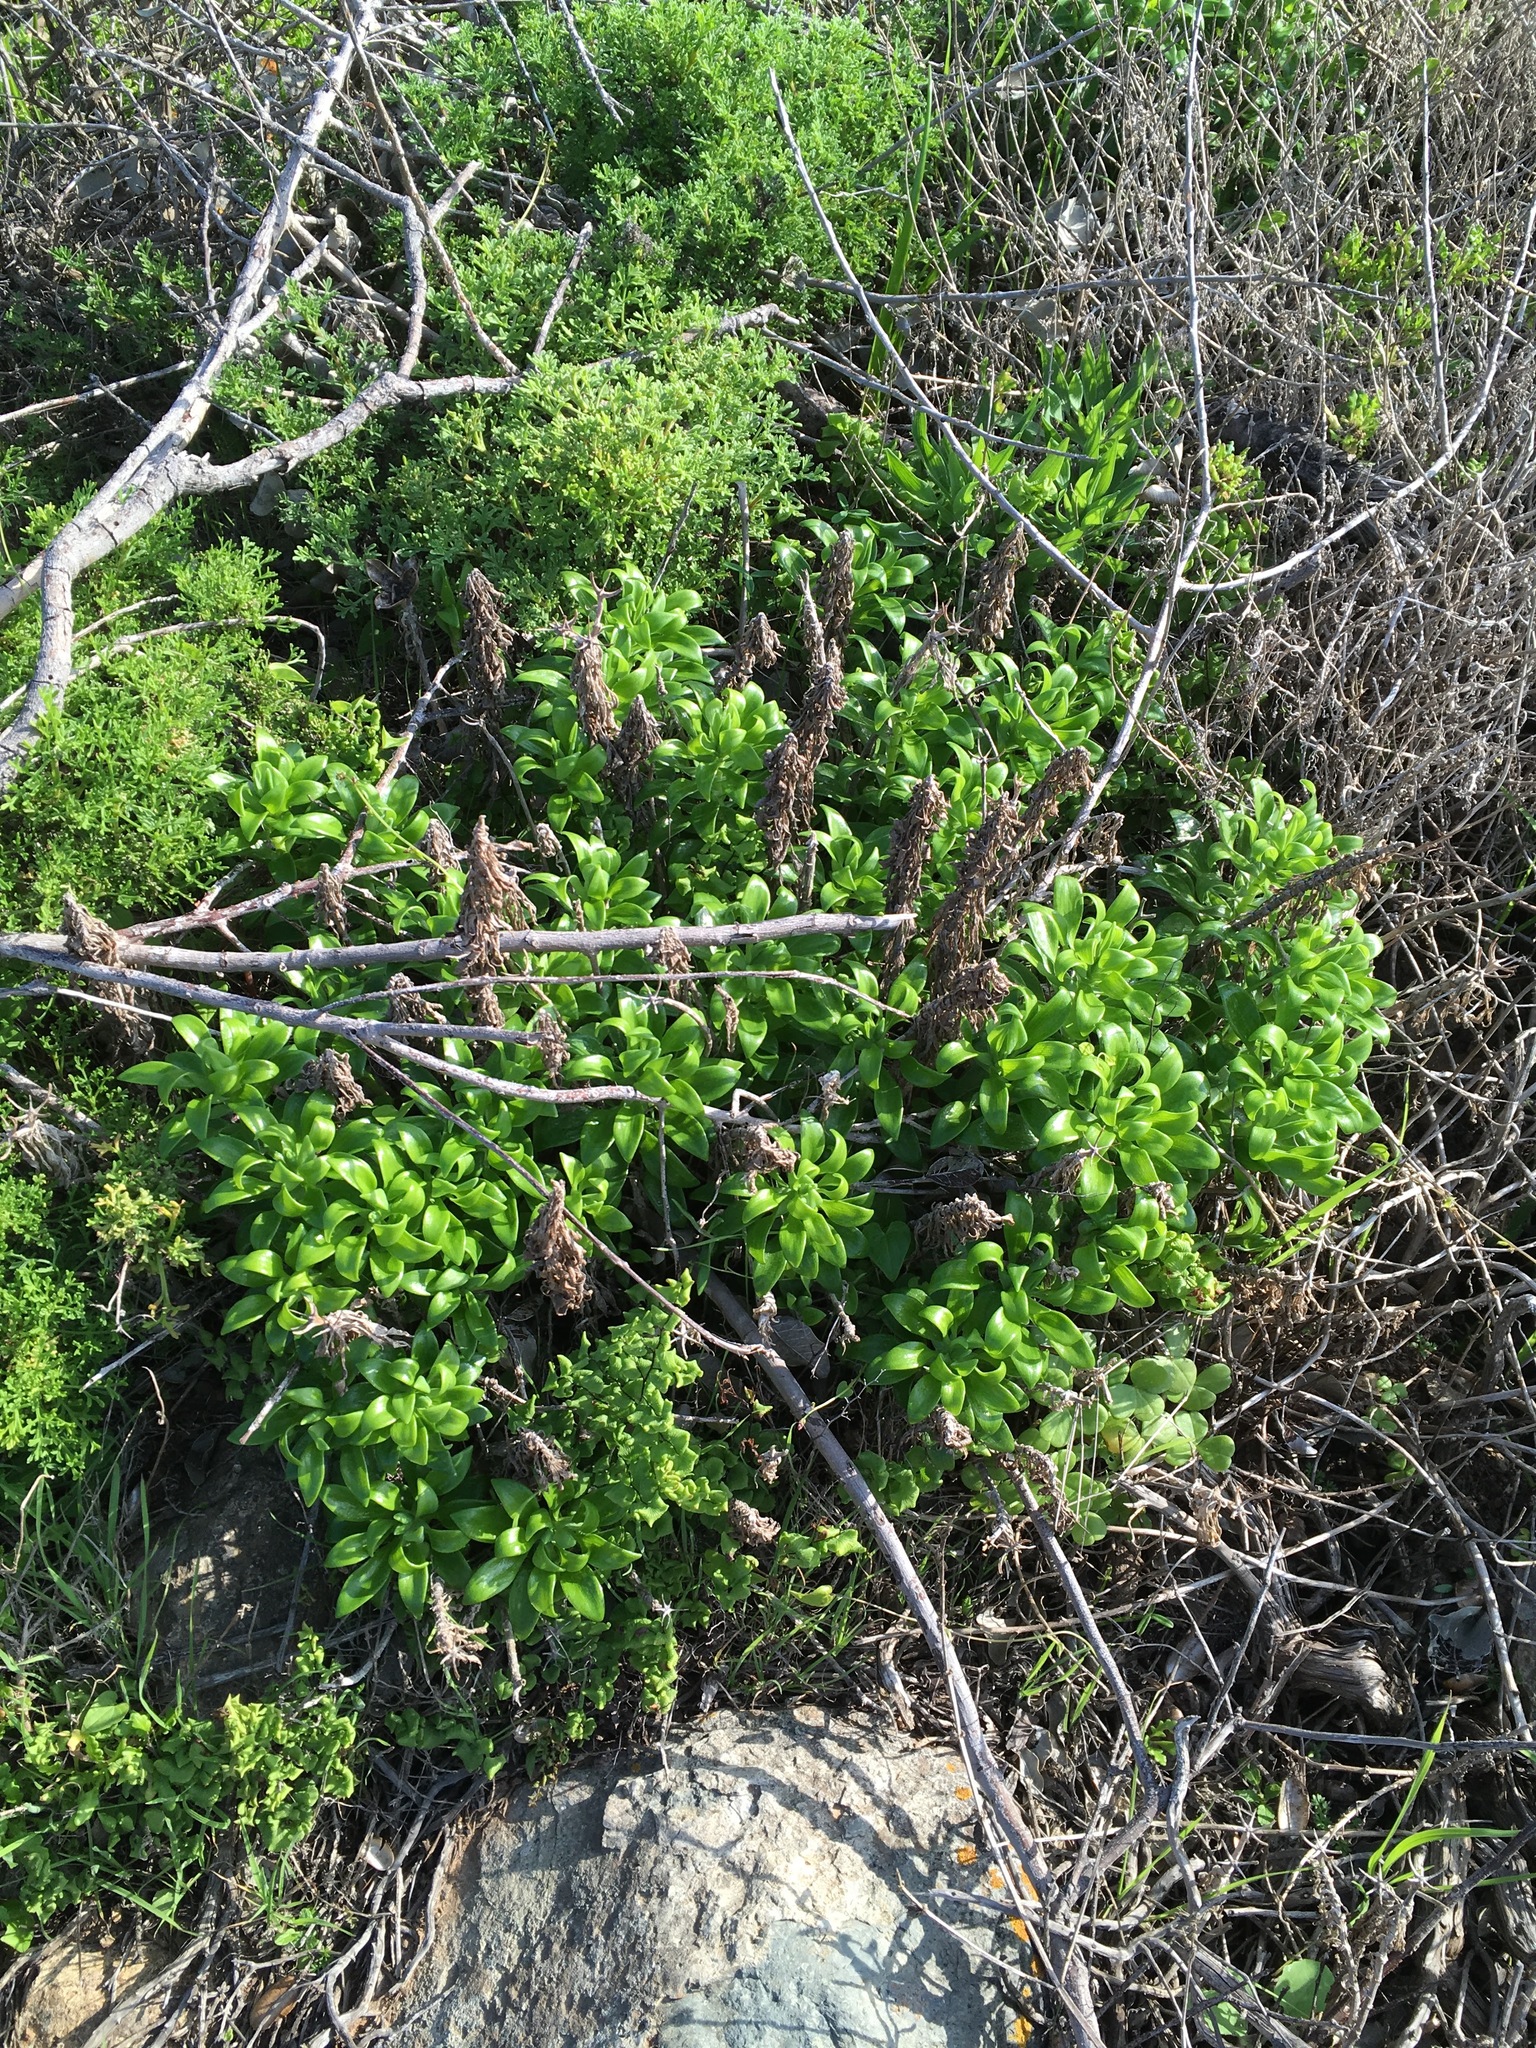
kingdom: Plantae
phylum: Tracheophyta
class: Liliopsida
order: Liliales
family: Alstroemeriaceae
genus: Alstroemeria
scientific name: Alstroemeria pelegrina
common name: Peruvian-lily
